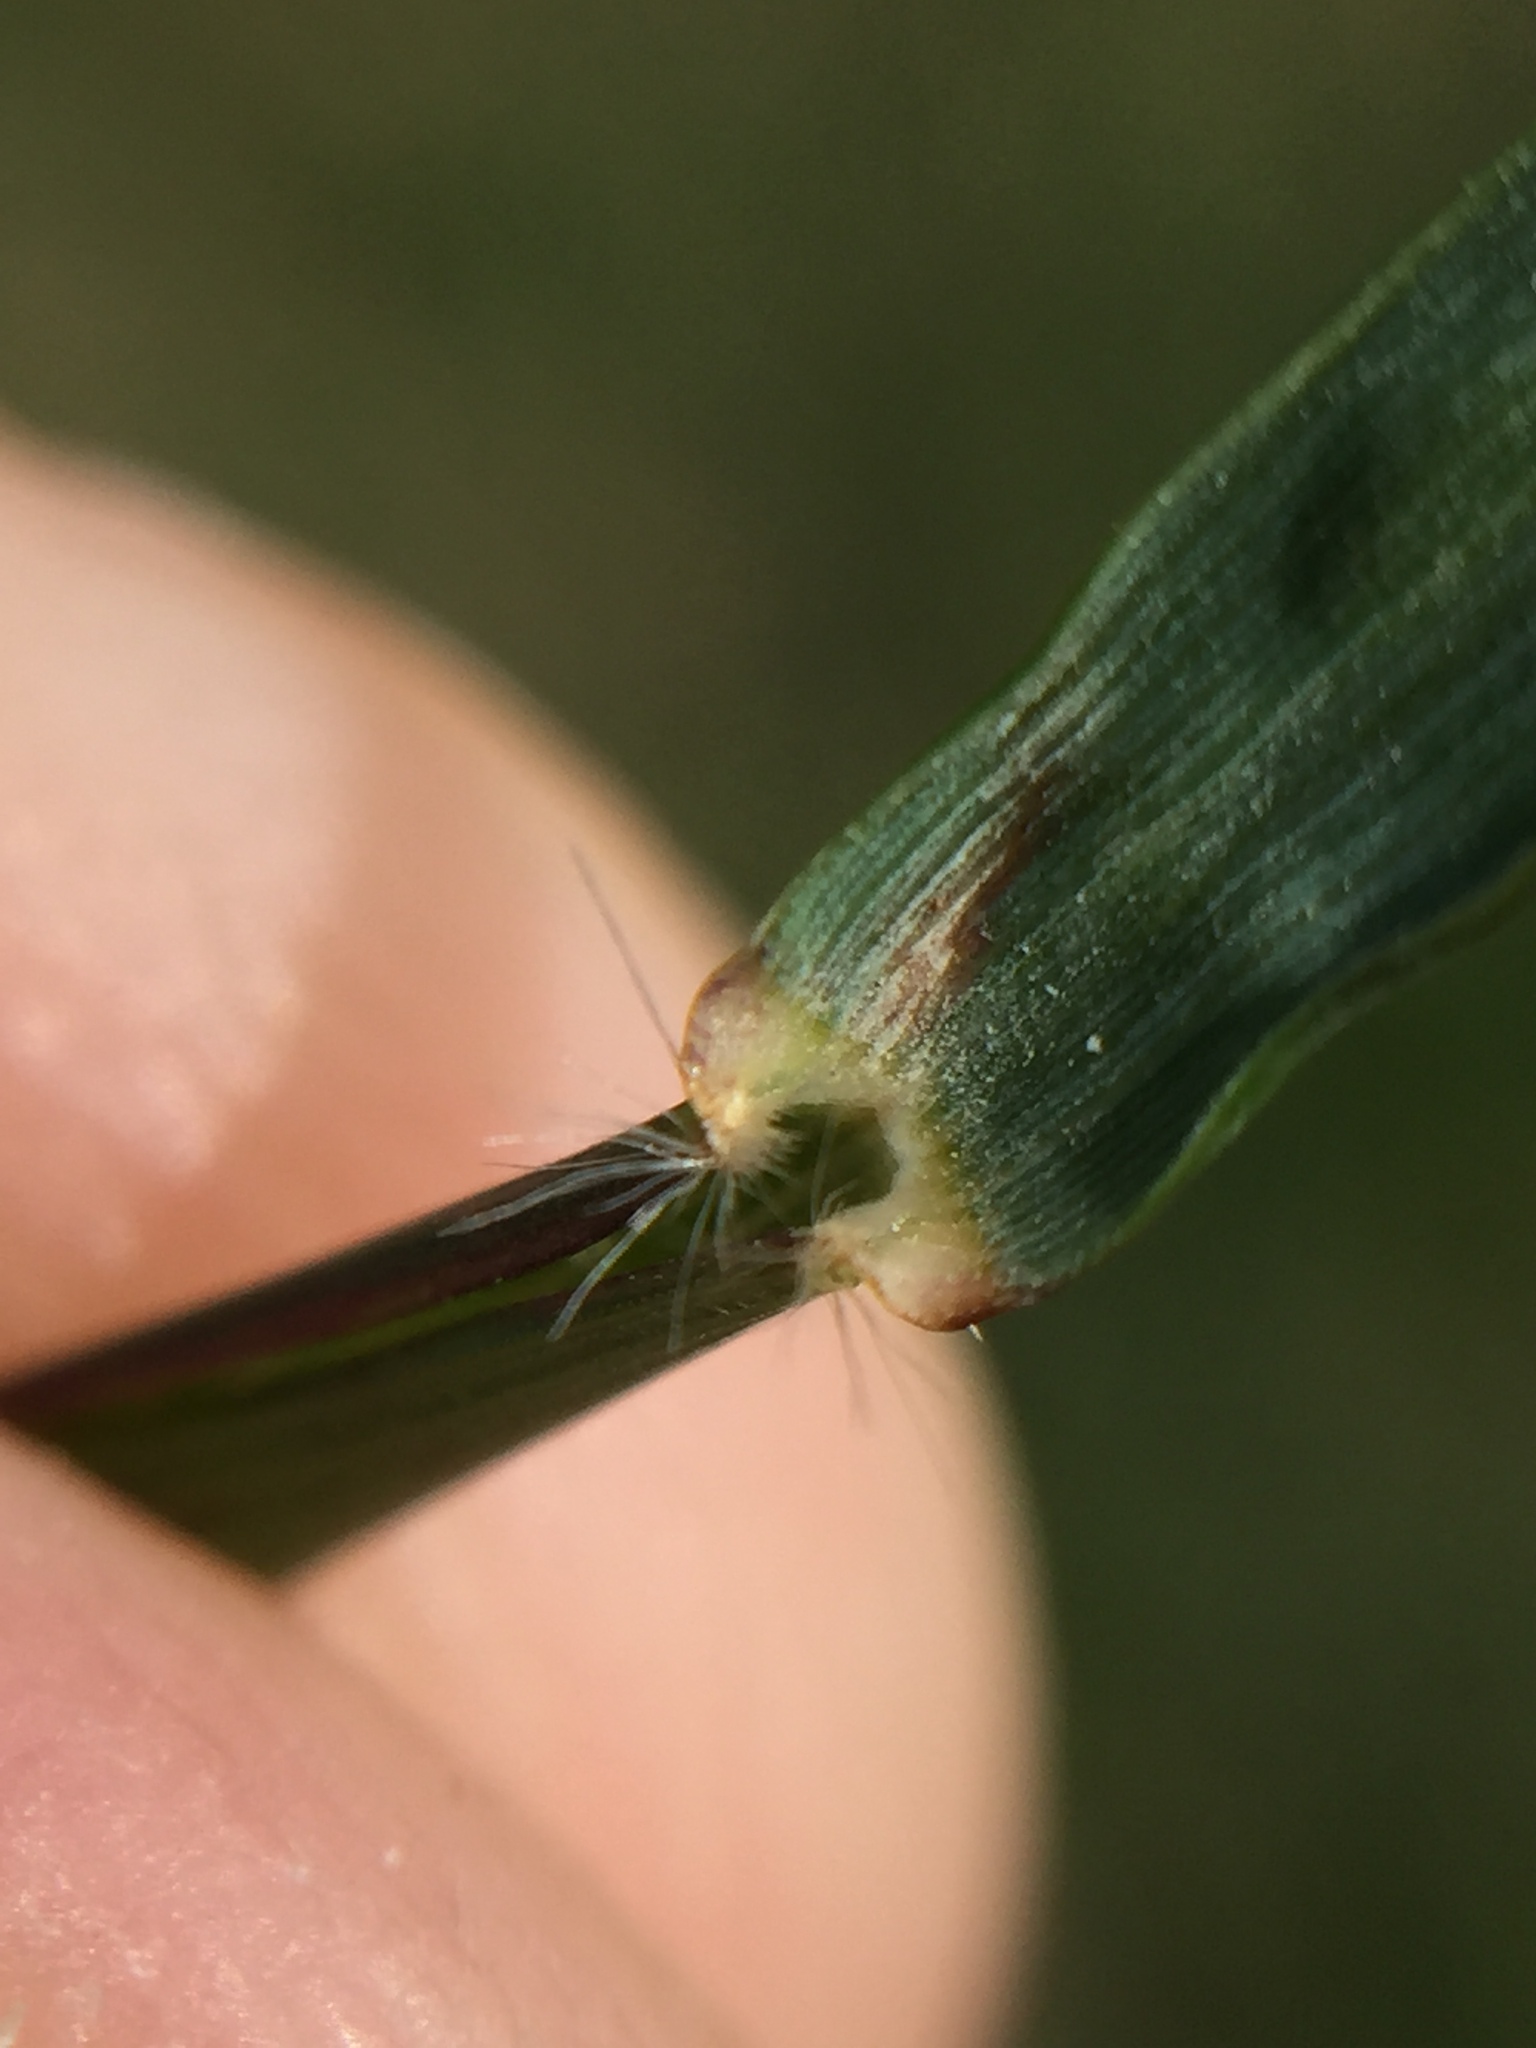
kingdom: Plantae
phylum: Tracheophyta
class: Liliopsida
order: Poales
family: Poaceae
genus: Danthonia
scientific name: Danthonia decumbens
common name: Common heathgrass
